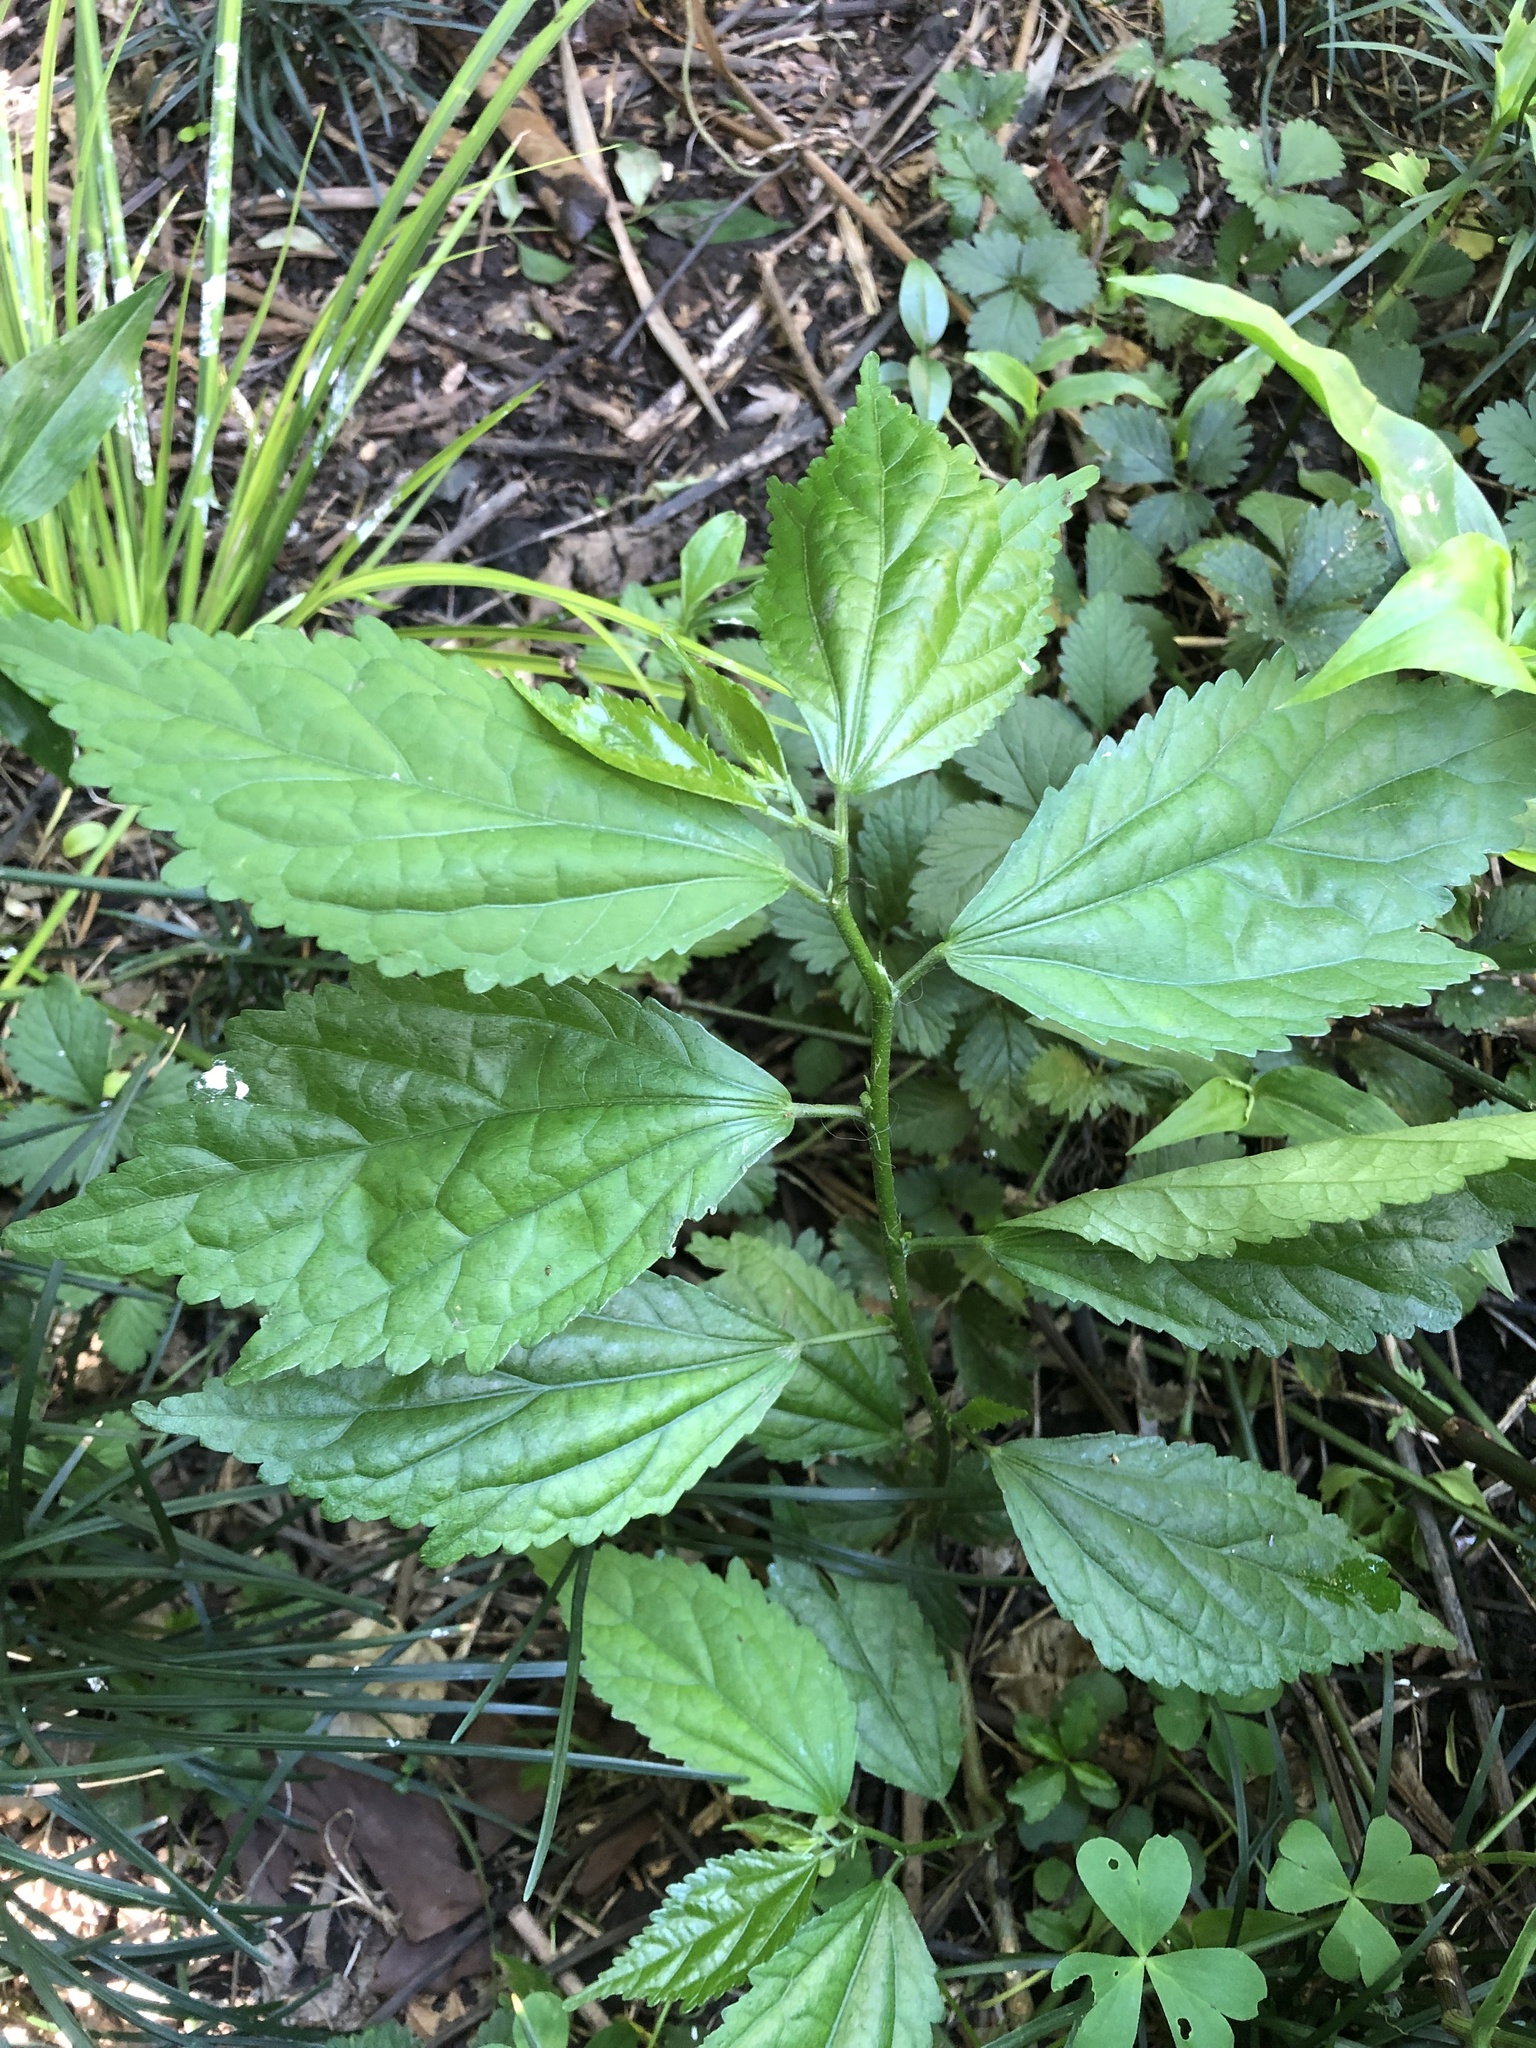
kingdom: Plantae
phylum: Tracheophyta
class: Magnoliopsida
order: Malvales
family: Malvaceae
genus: Pavonia
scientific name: Pavonia sepium
